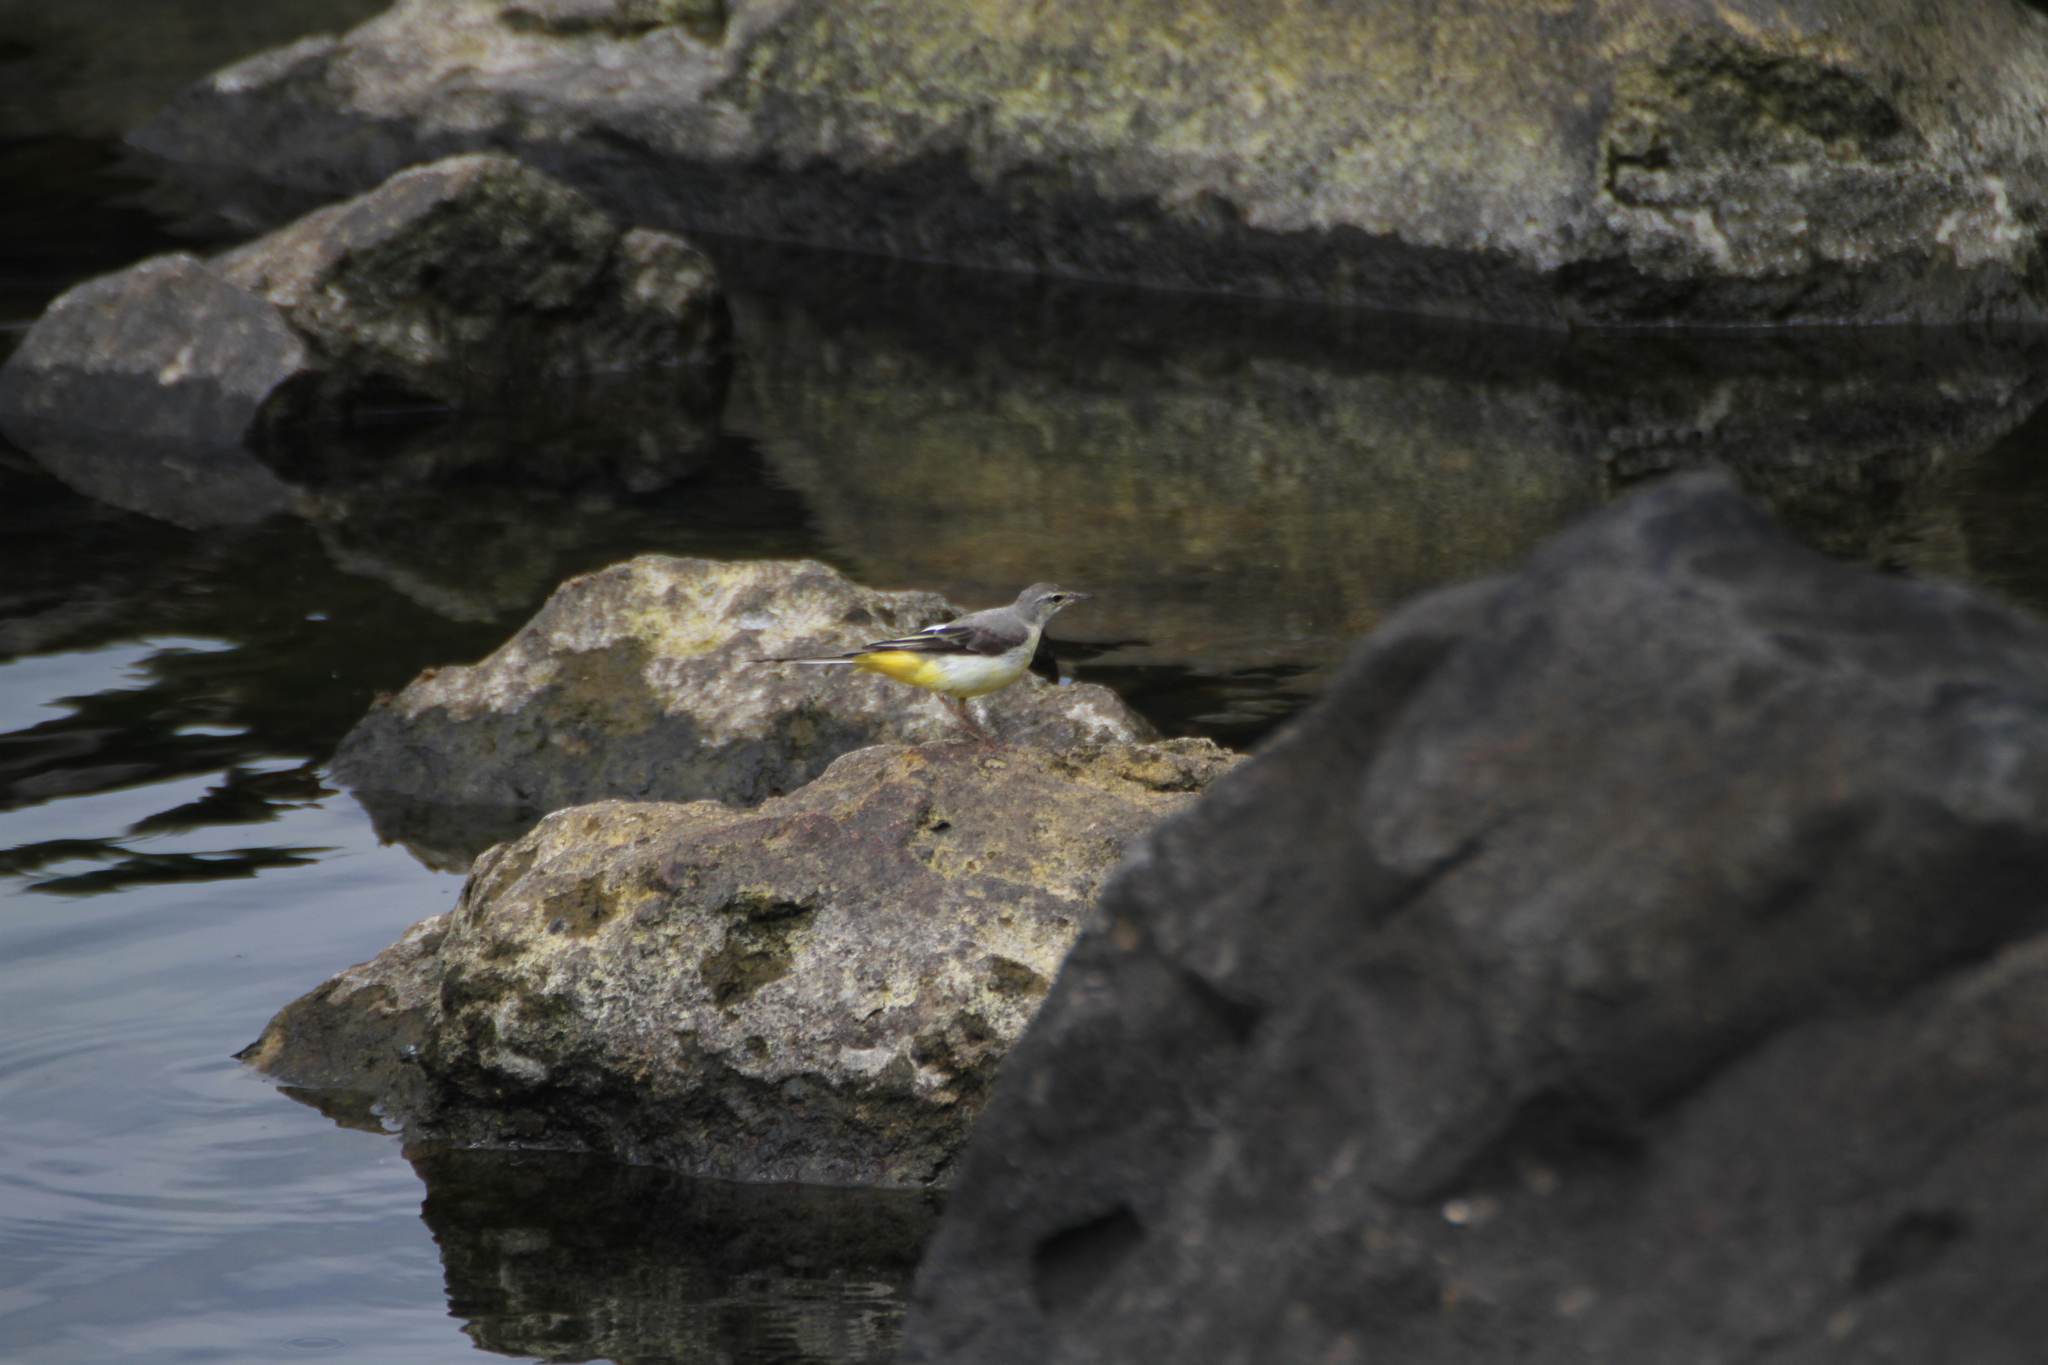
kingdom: Animalia
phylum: Chordata
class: Aves
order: Passeriformes
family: Motacillidae
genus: Motacilla
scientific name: Motacilla cinerea
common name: Grey wagtail
